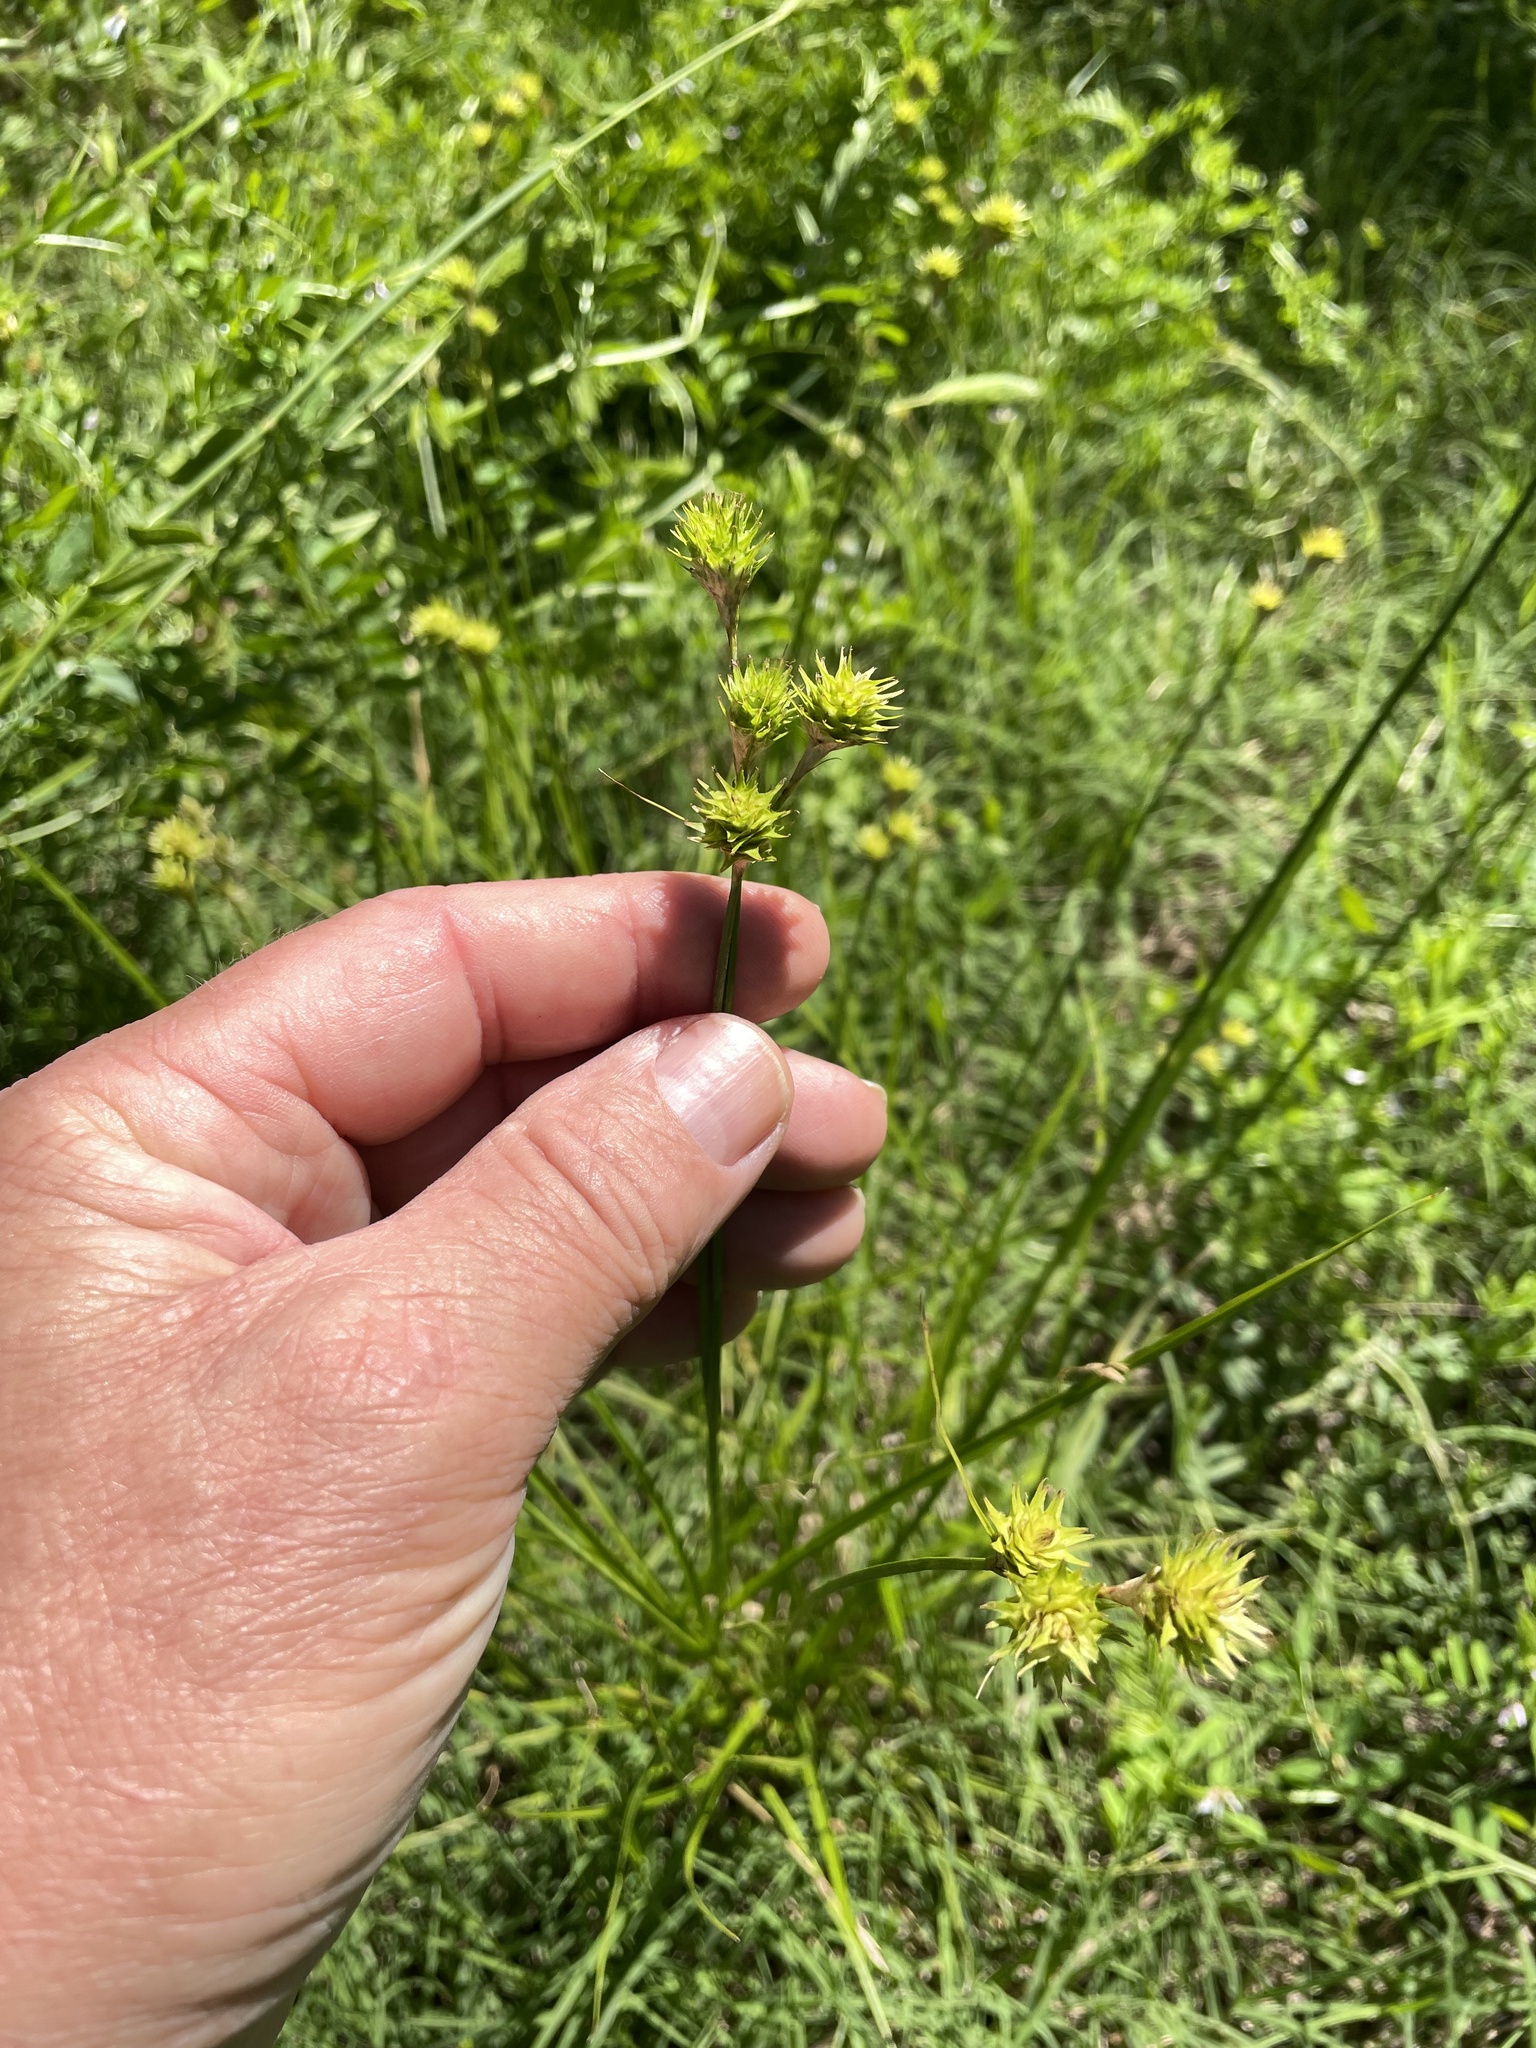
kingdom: Plantae
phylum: Tracheophyta
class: Liliopsida
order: Poales
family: Cyperaceae
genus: Carex
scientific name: Carex tetrastachya
